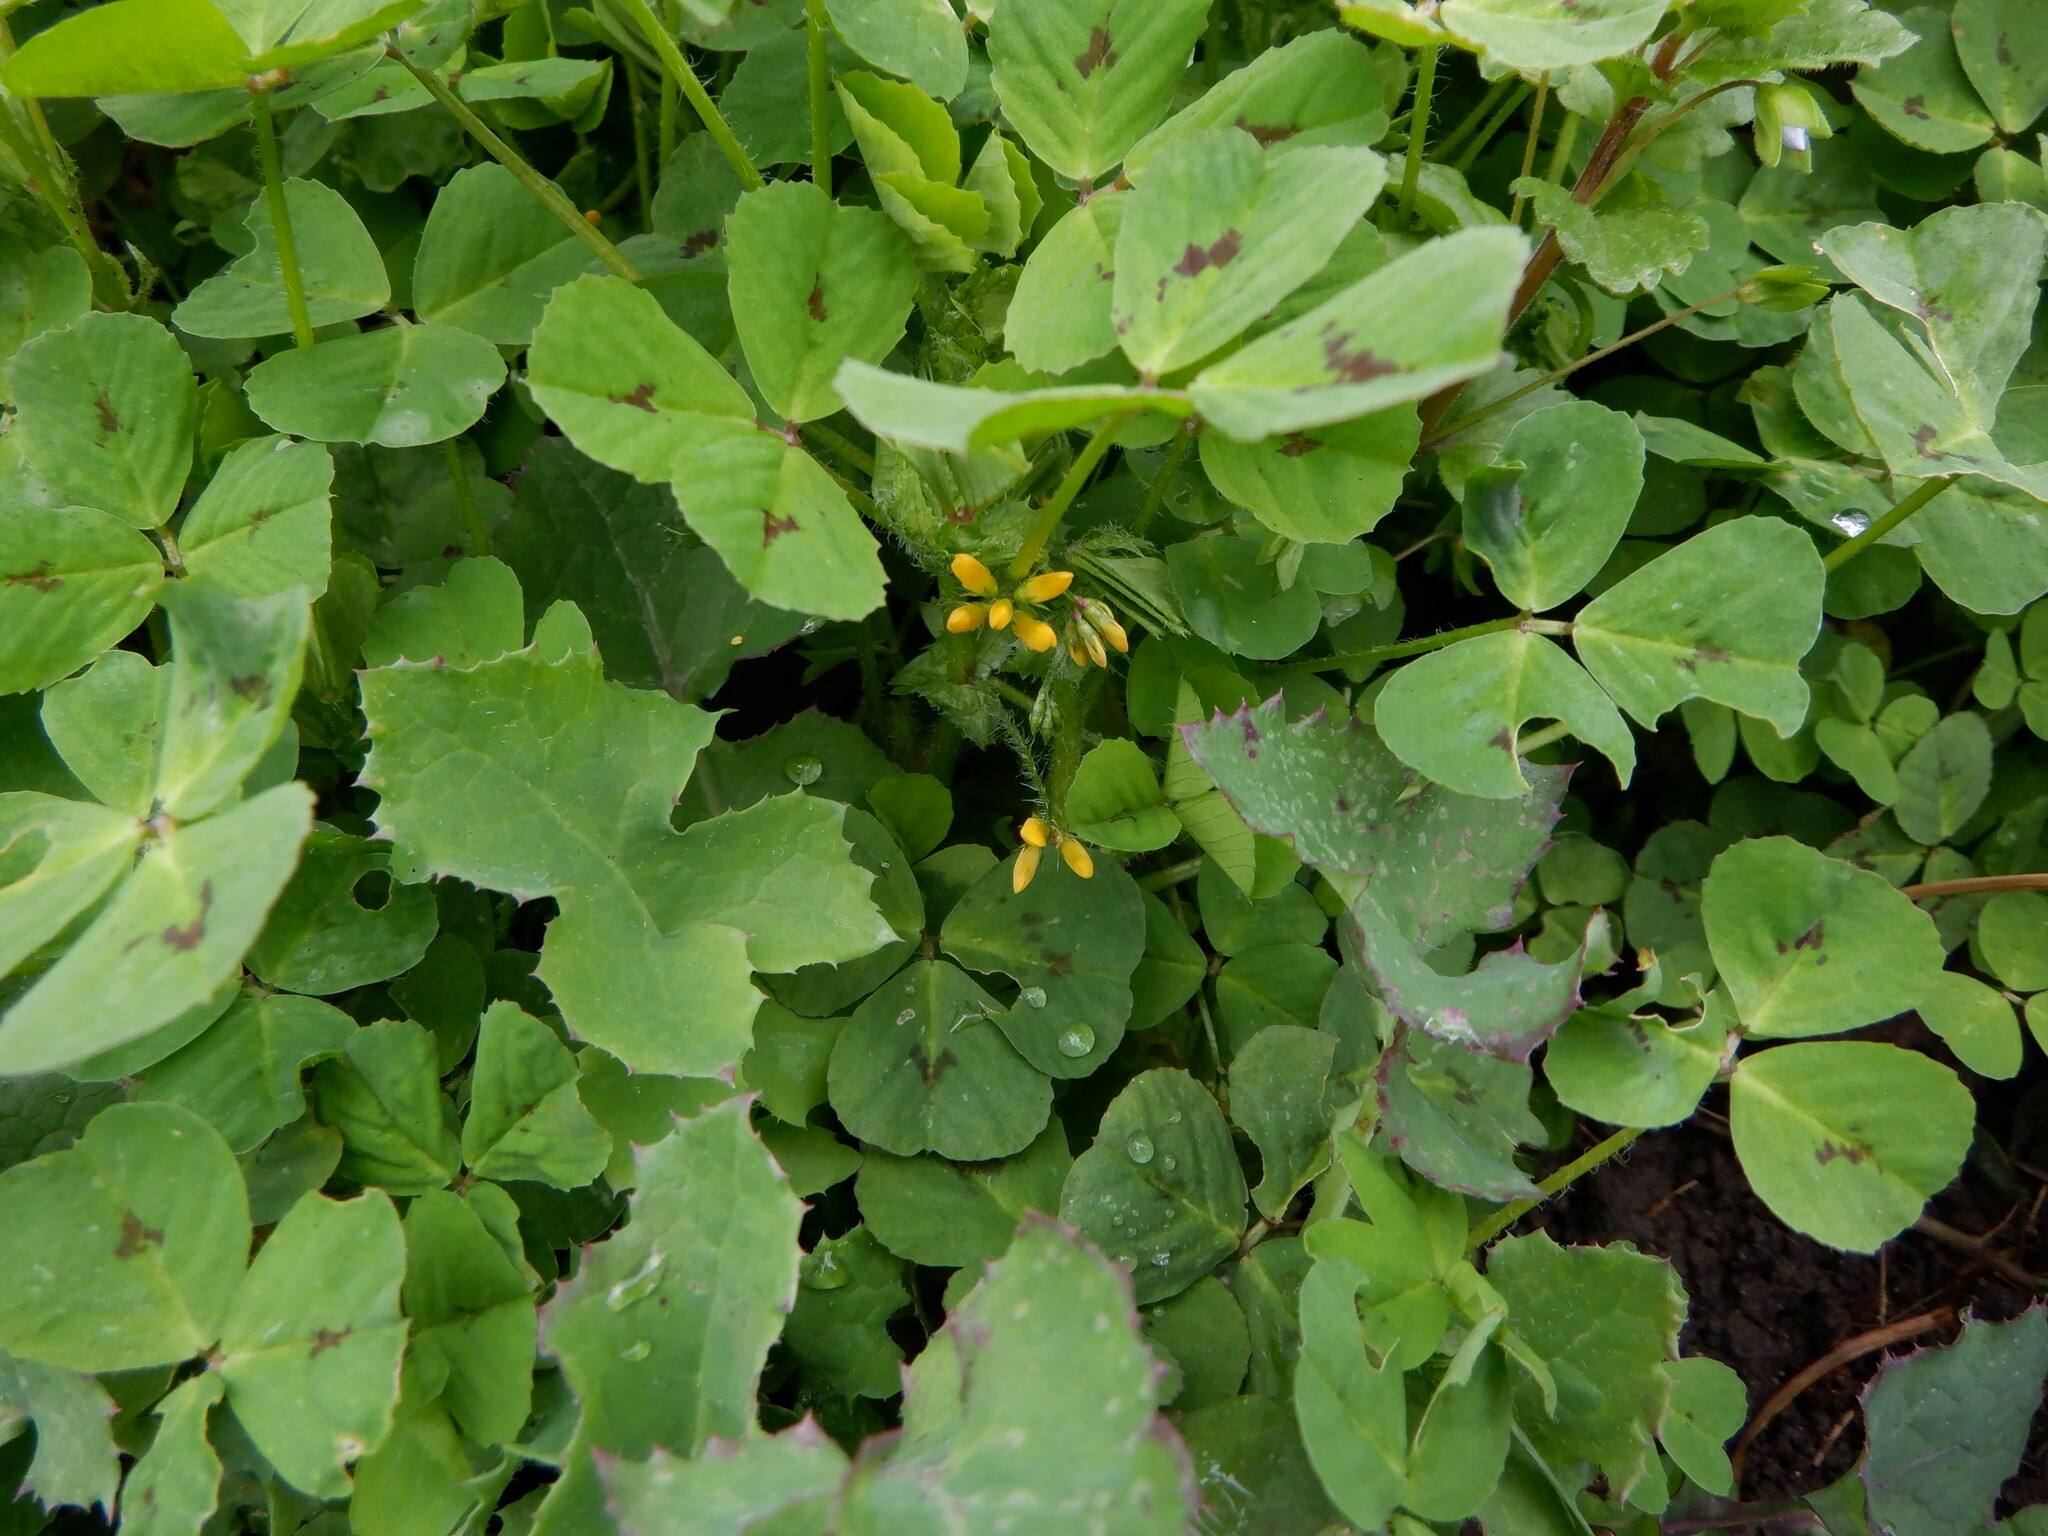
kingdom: Plantae
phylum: Tracheophyta
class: Magnoliopsida
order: Fabales
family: Fabaceae
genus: Medicago
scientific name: Medicago arabica
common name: Spotted medick
